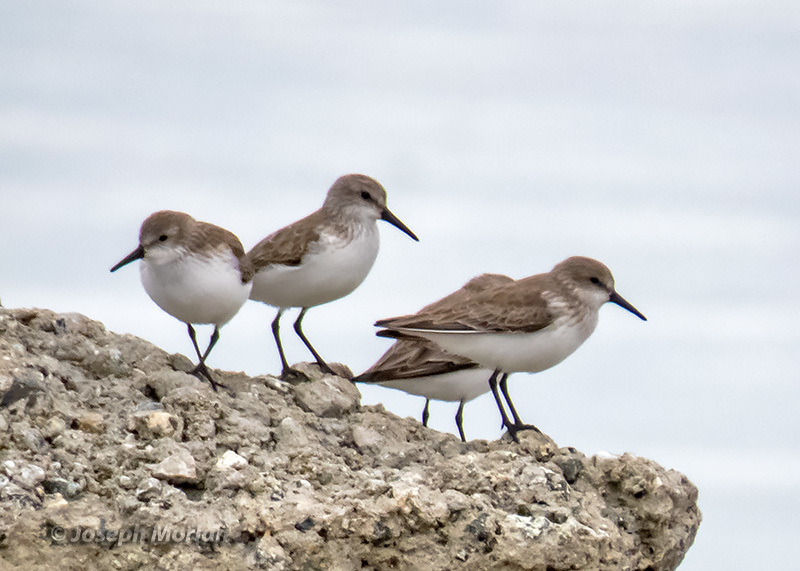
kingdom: Animalia
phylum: Chordata
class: Aves
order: Charadriiformes
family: Scolopacidae
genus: Calidris
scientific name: Calidris mauri
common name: Western sandpiper
